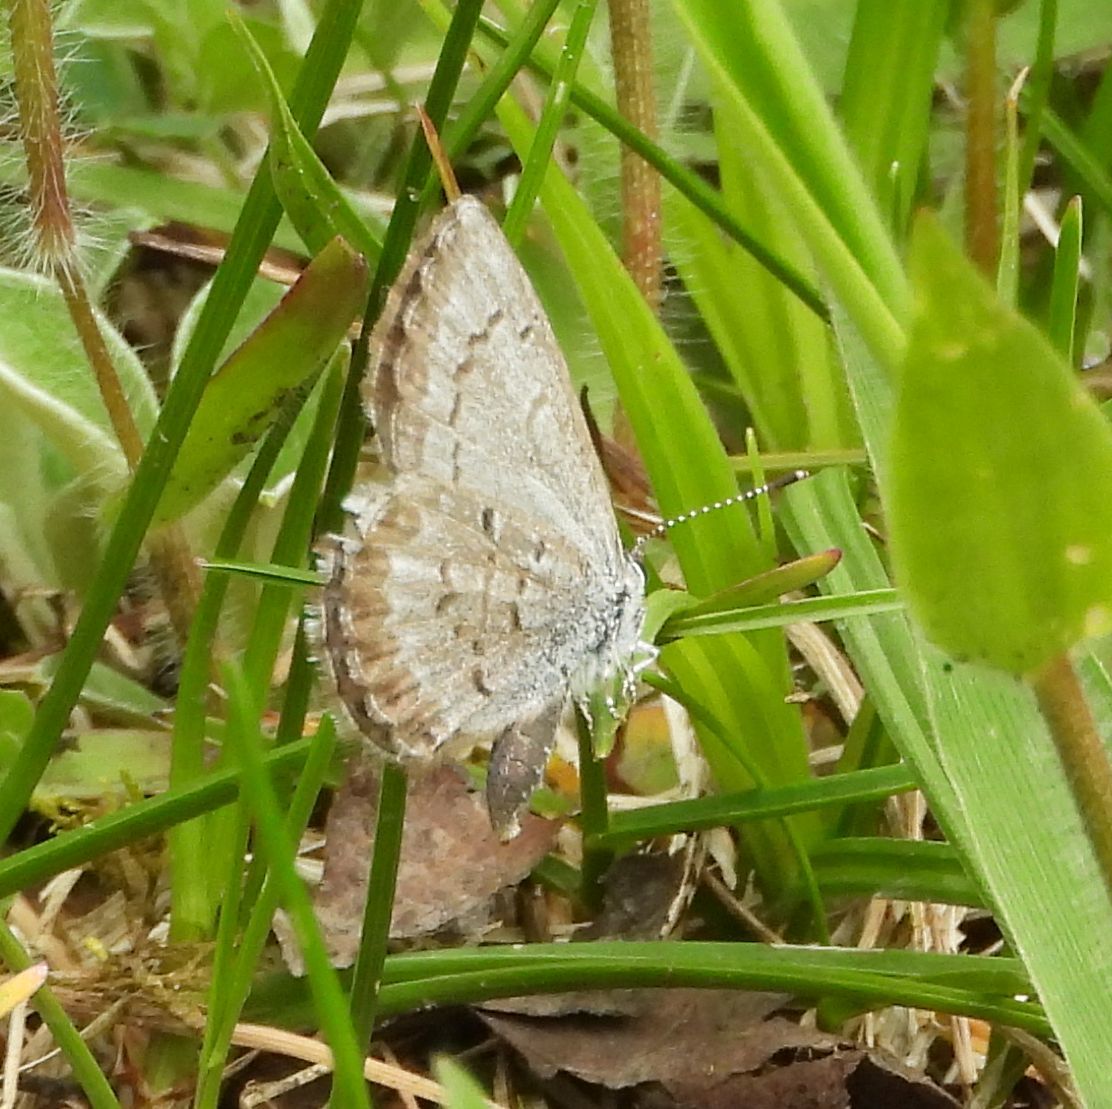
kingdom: Animalia
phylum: Arthropoda
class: Insecta
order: Lepidoptera
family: Lycaenidae
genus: Celastrina
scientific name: Celastrina lucia
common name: Lucia azure
